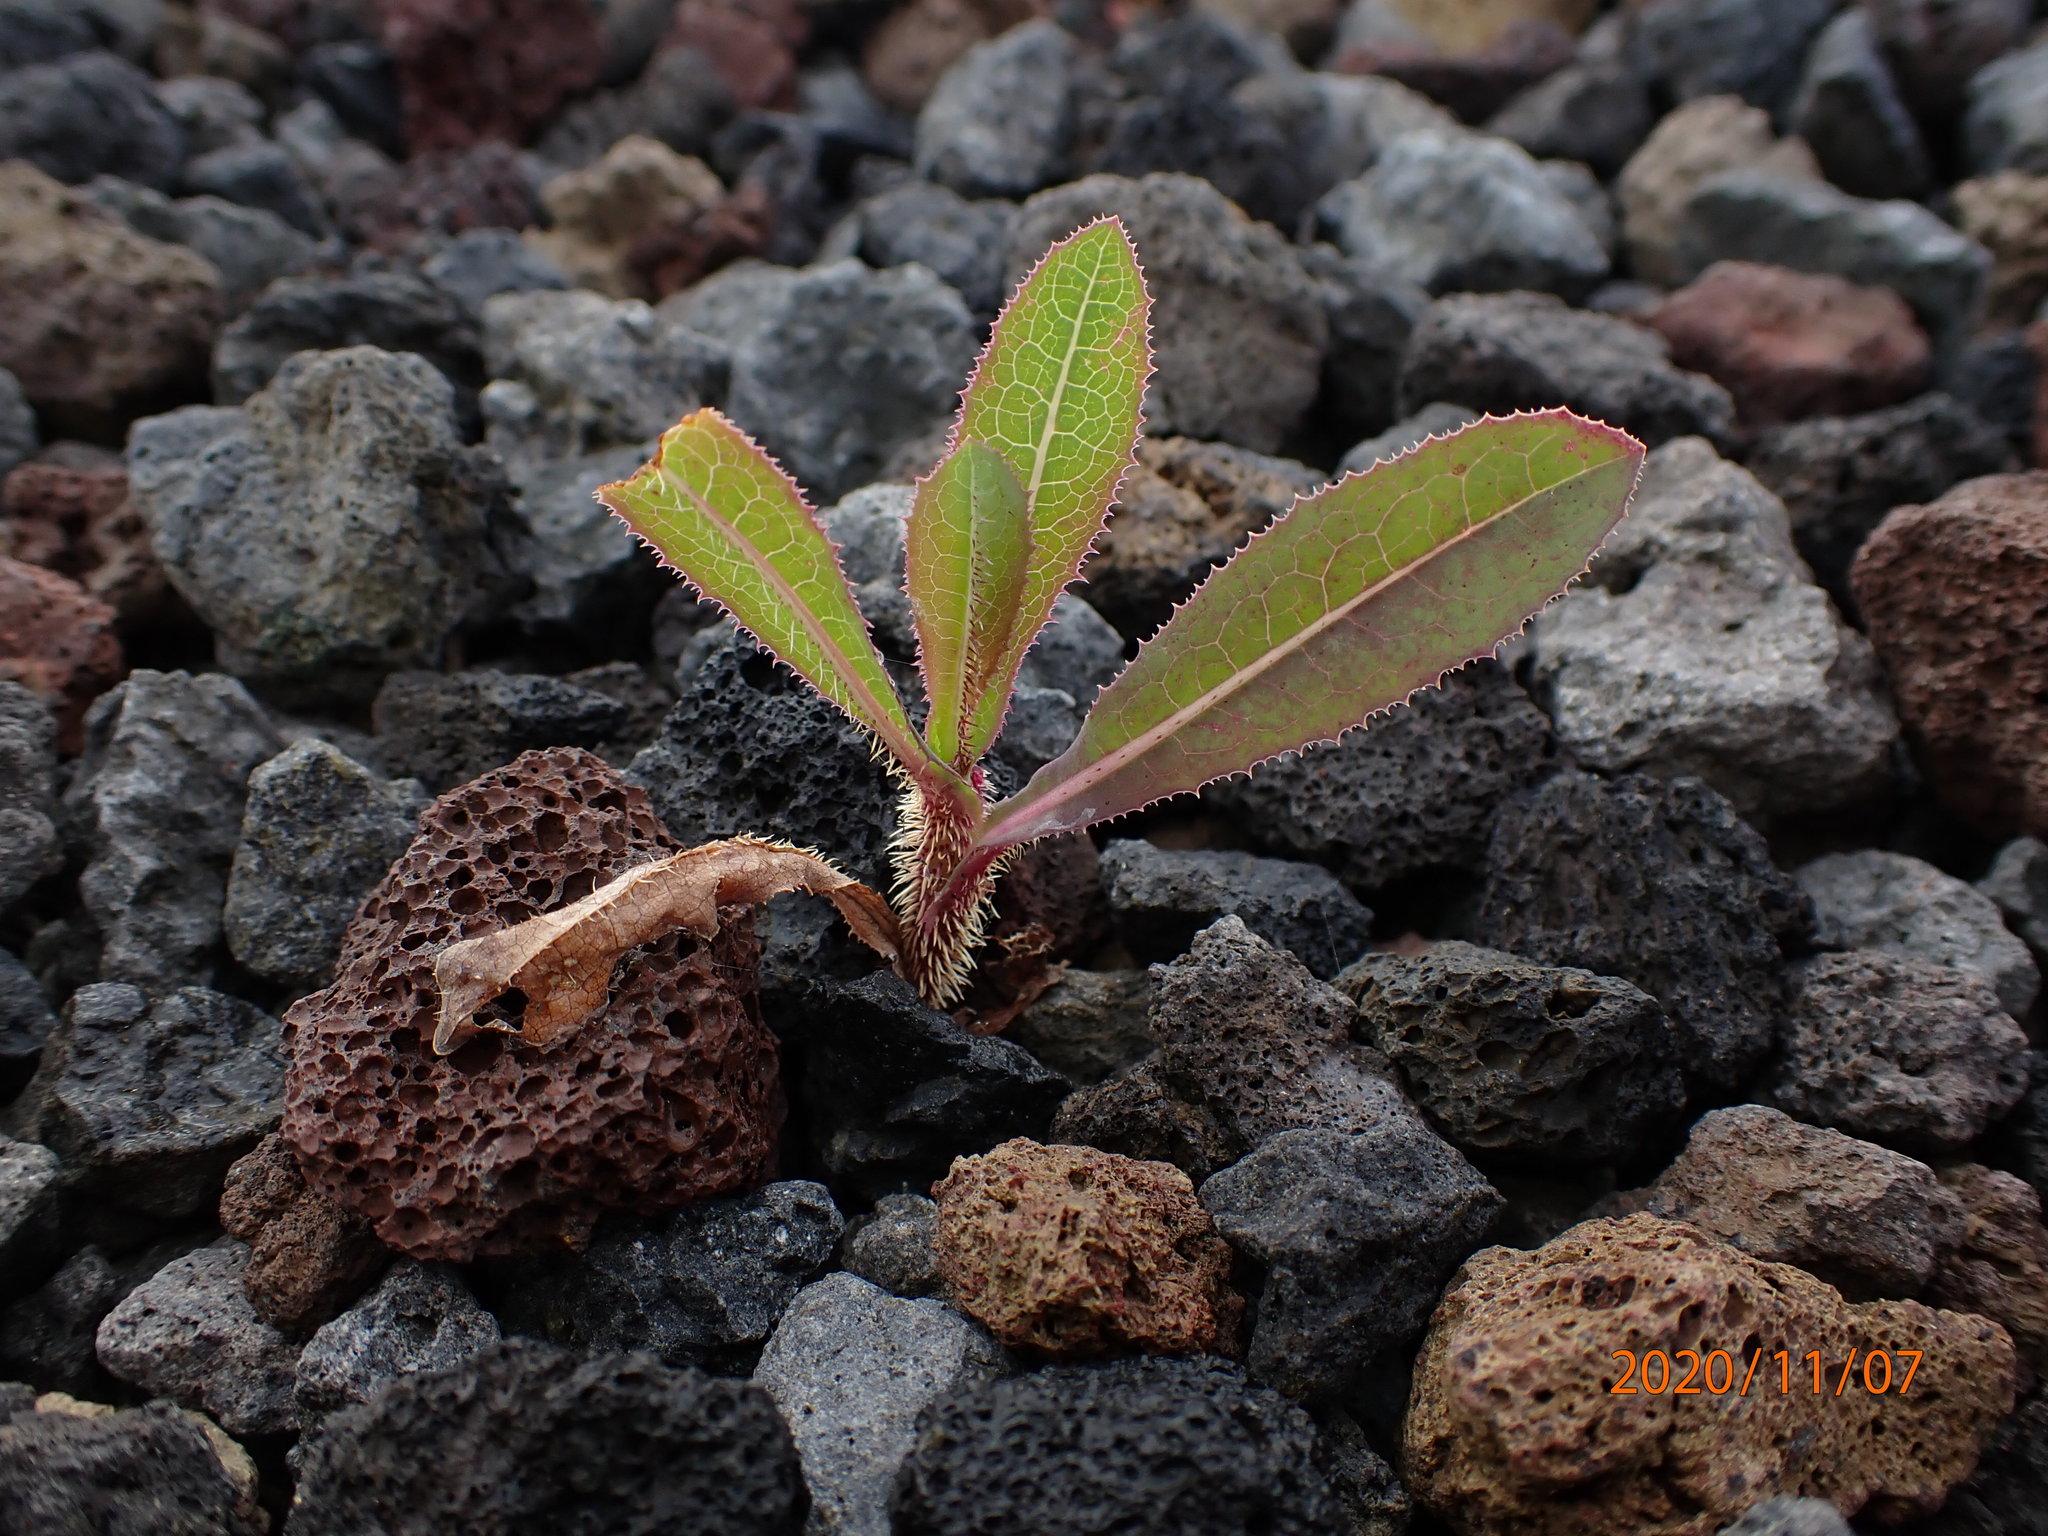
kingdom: Plantae
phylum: Tracheophyta
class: Magnoliopsida
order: Asterales
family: Asteraceae
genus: Lactuca
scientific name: Lactuca serriola
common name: Prickly lettuce
